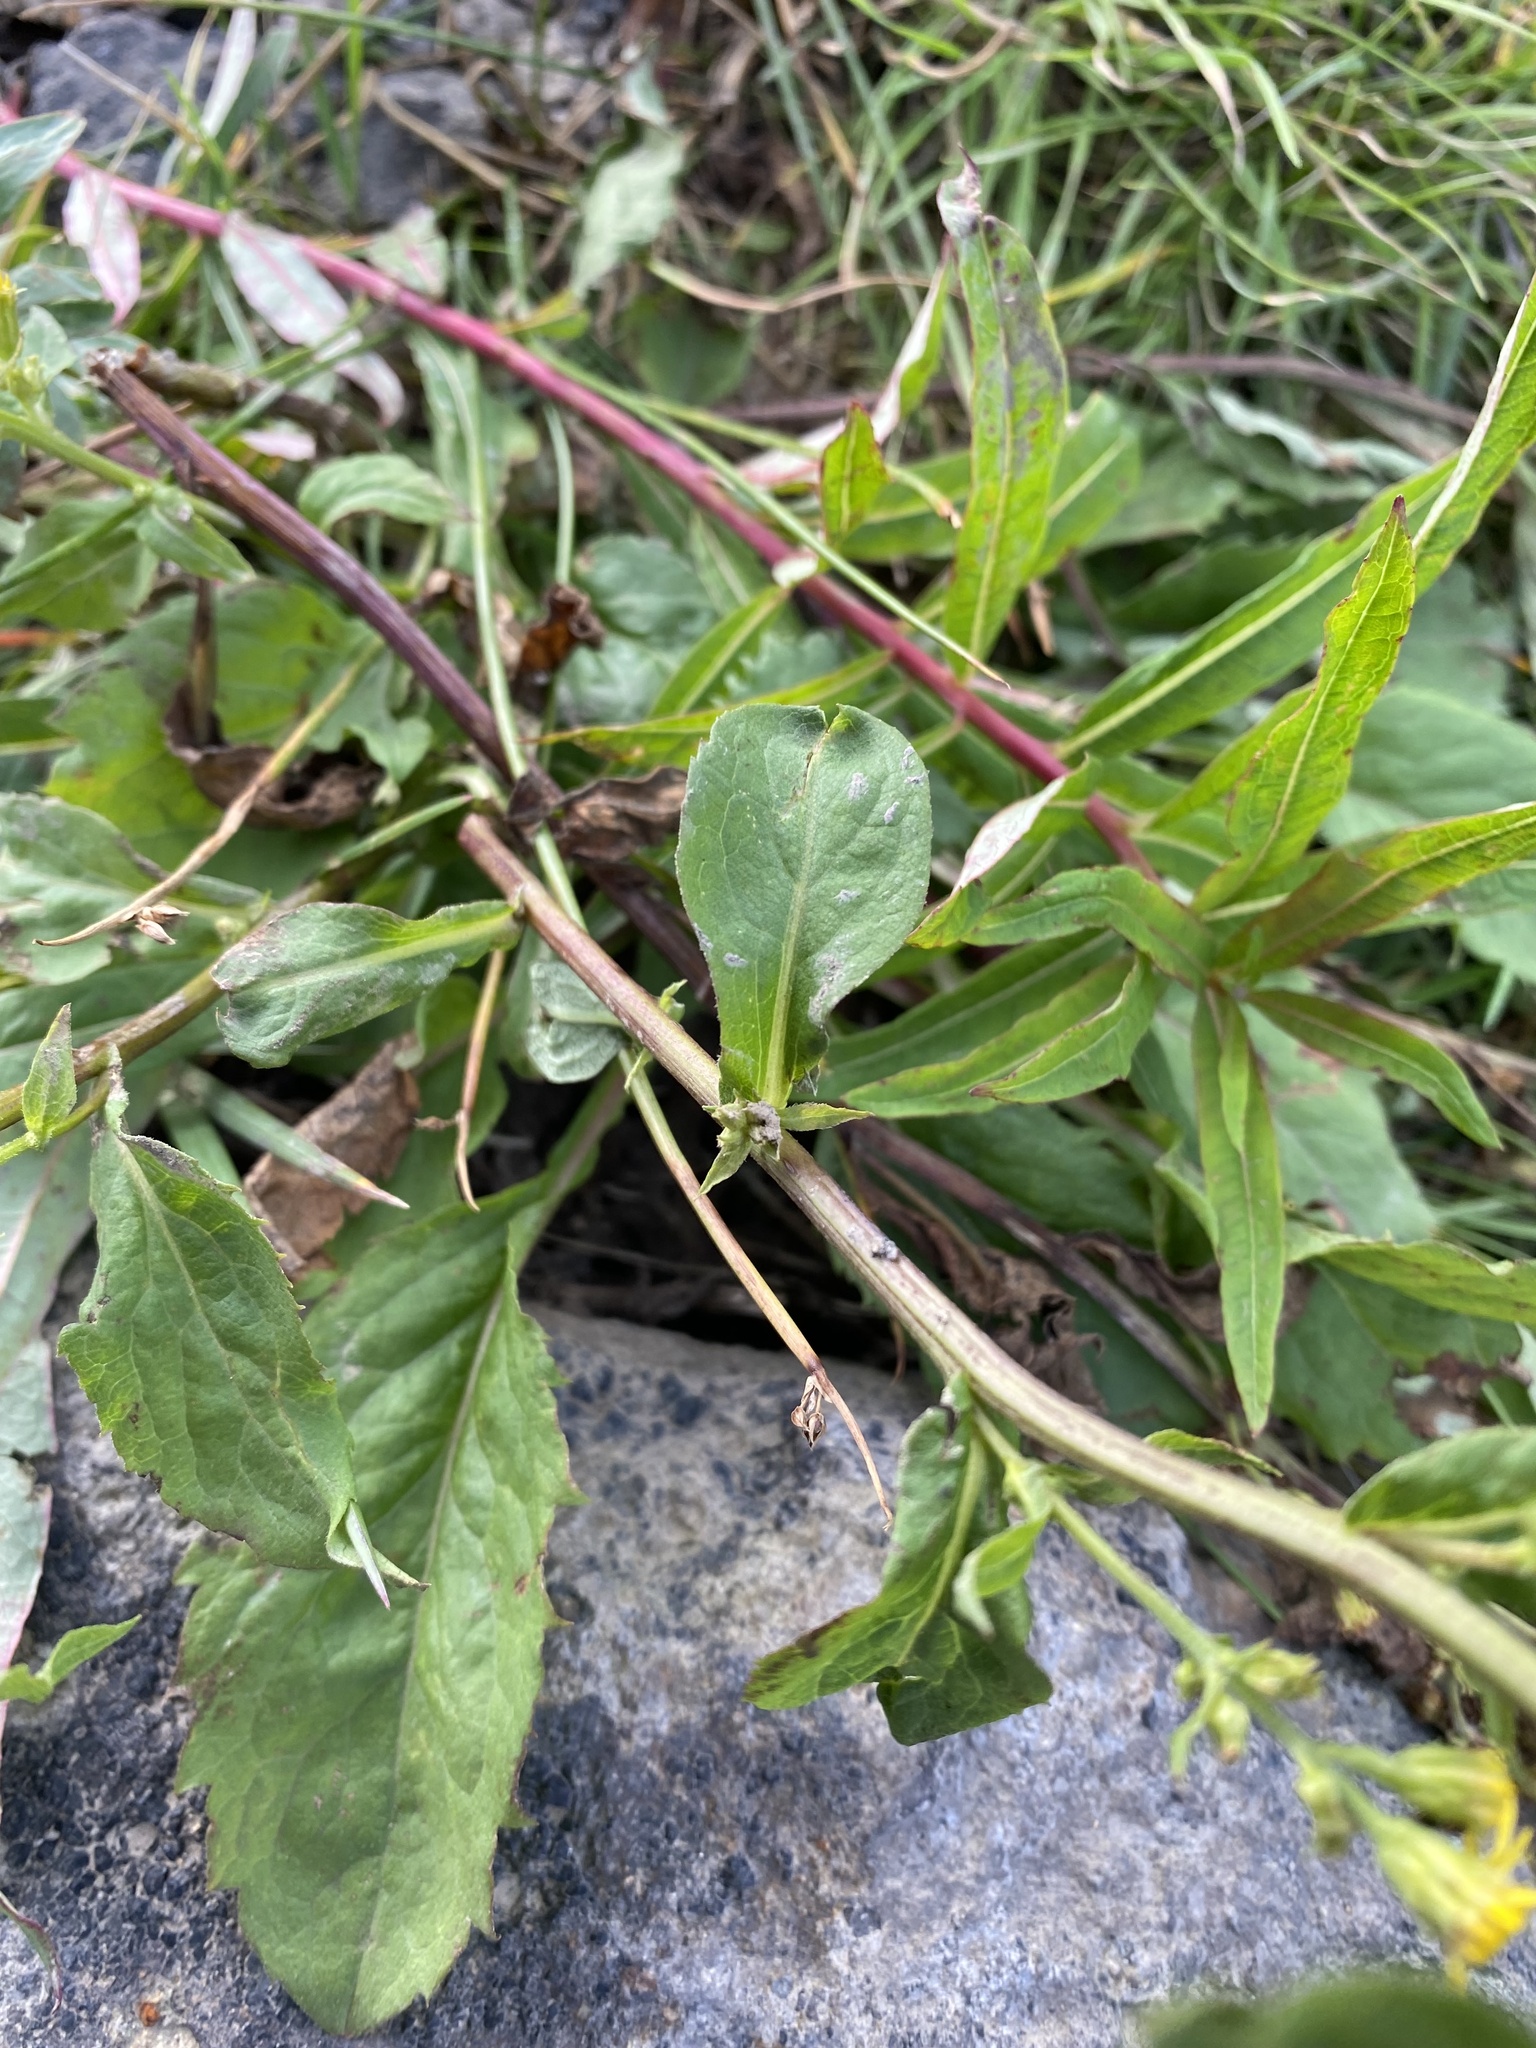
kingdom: Plantae
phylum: Tracheophyta
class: Magnoliopsida
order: Asterales
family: Asteraceae
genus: Solidago
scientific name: Solidago cuprea
